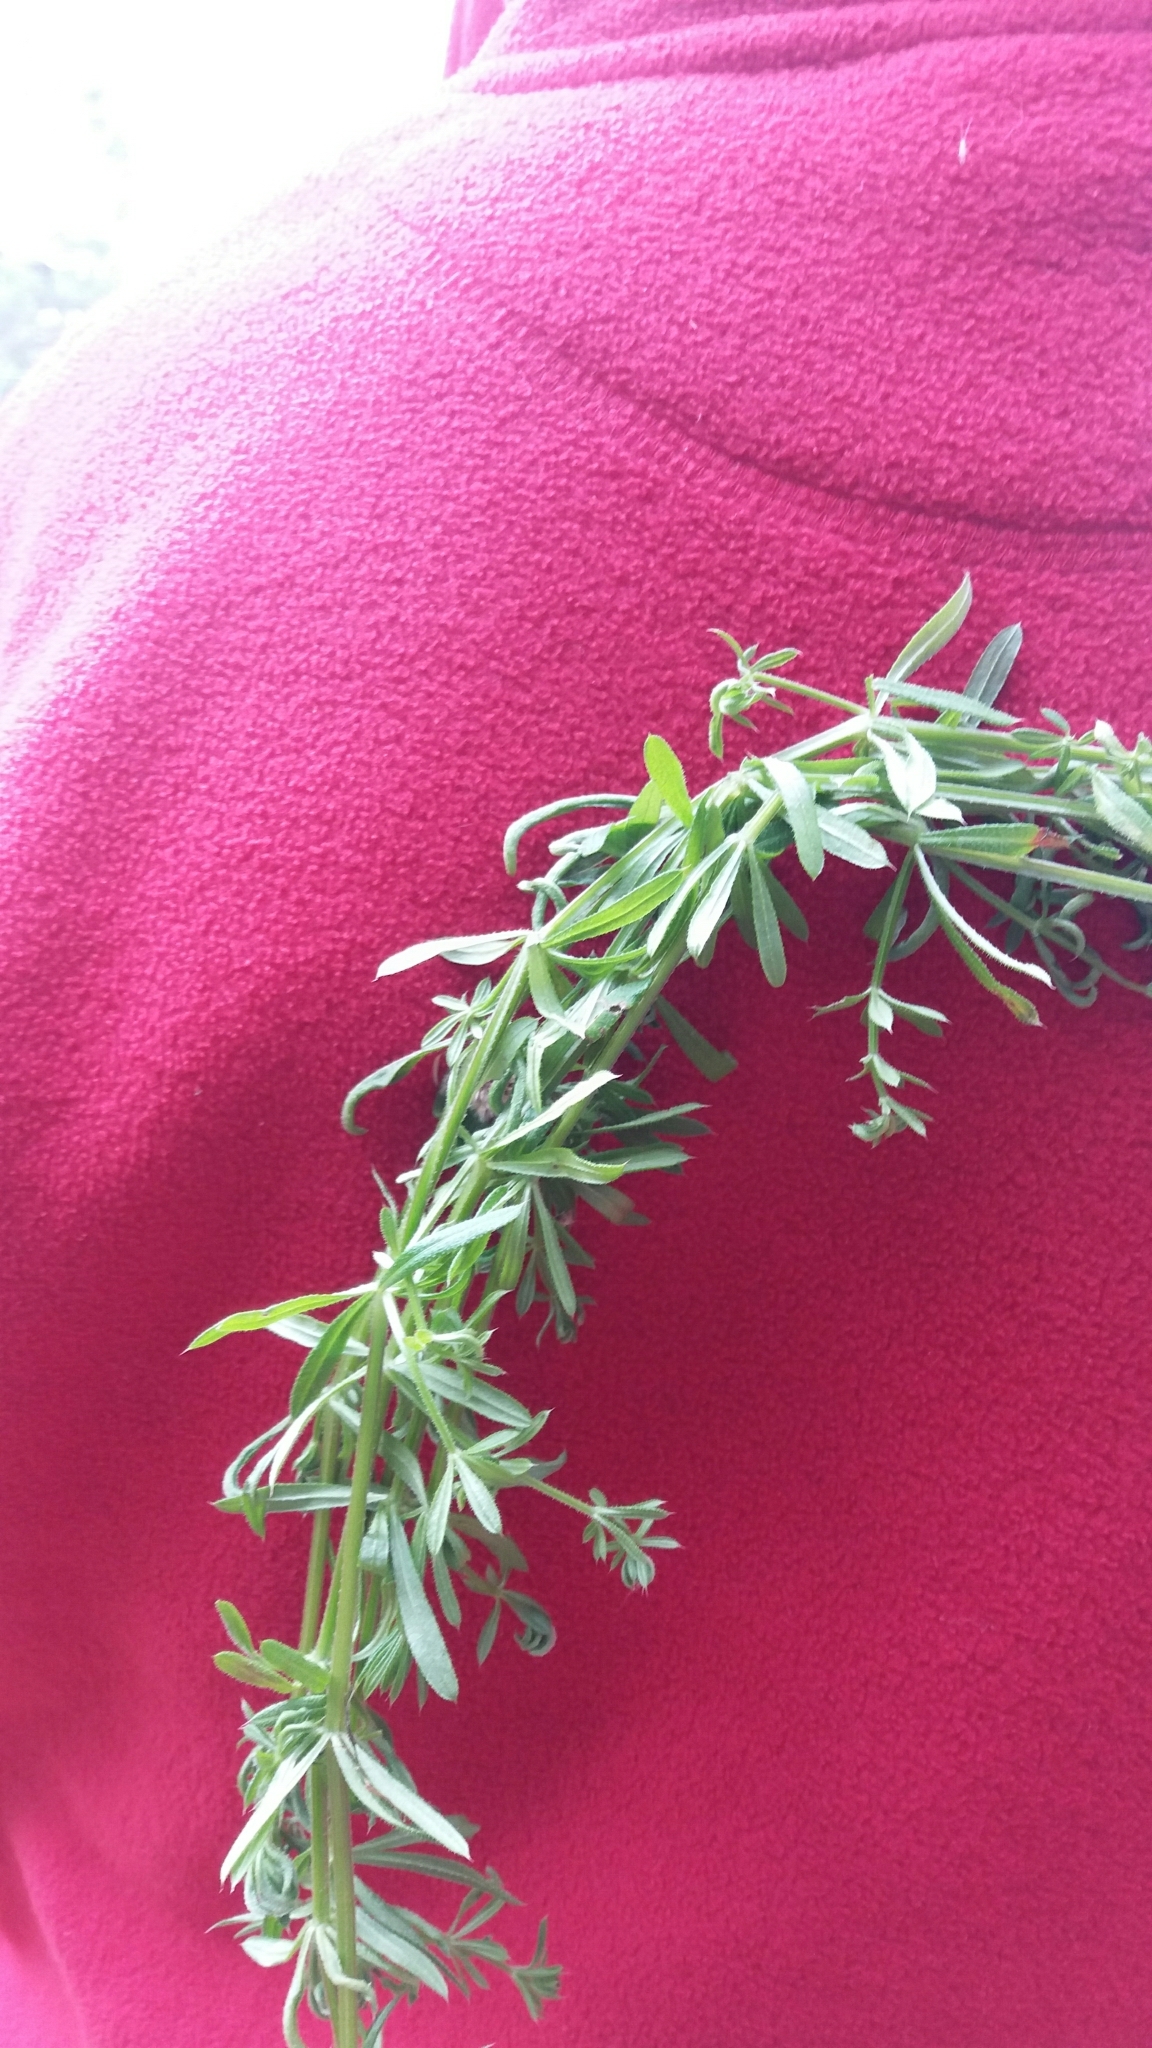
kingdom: Plantae
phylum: Tracheophyta
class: Magnoliopsida
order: Gentianales
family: Rubiaceae
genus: Galium
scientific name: Galium aparine
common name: Cleavers
